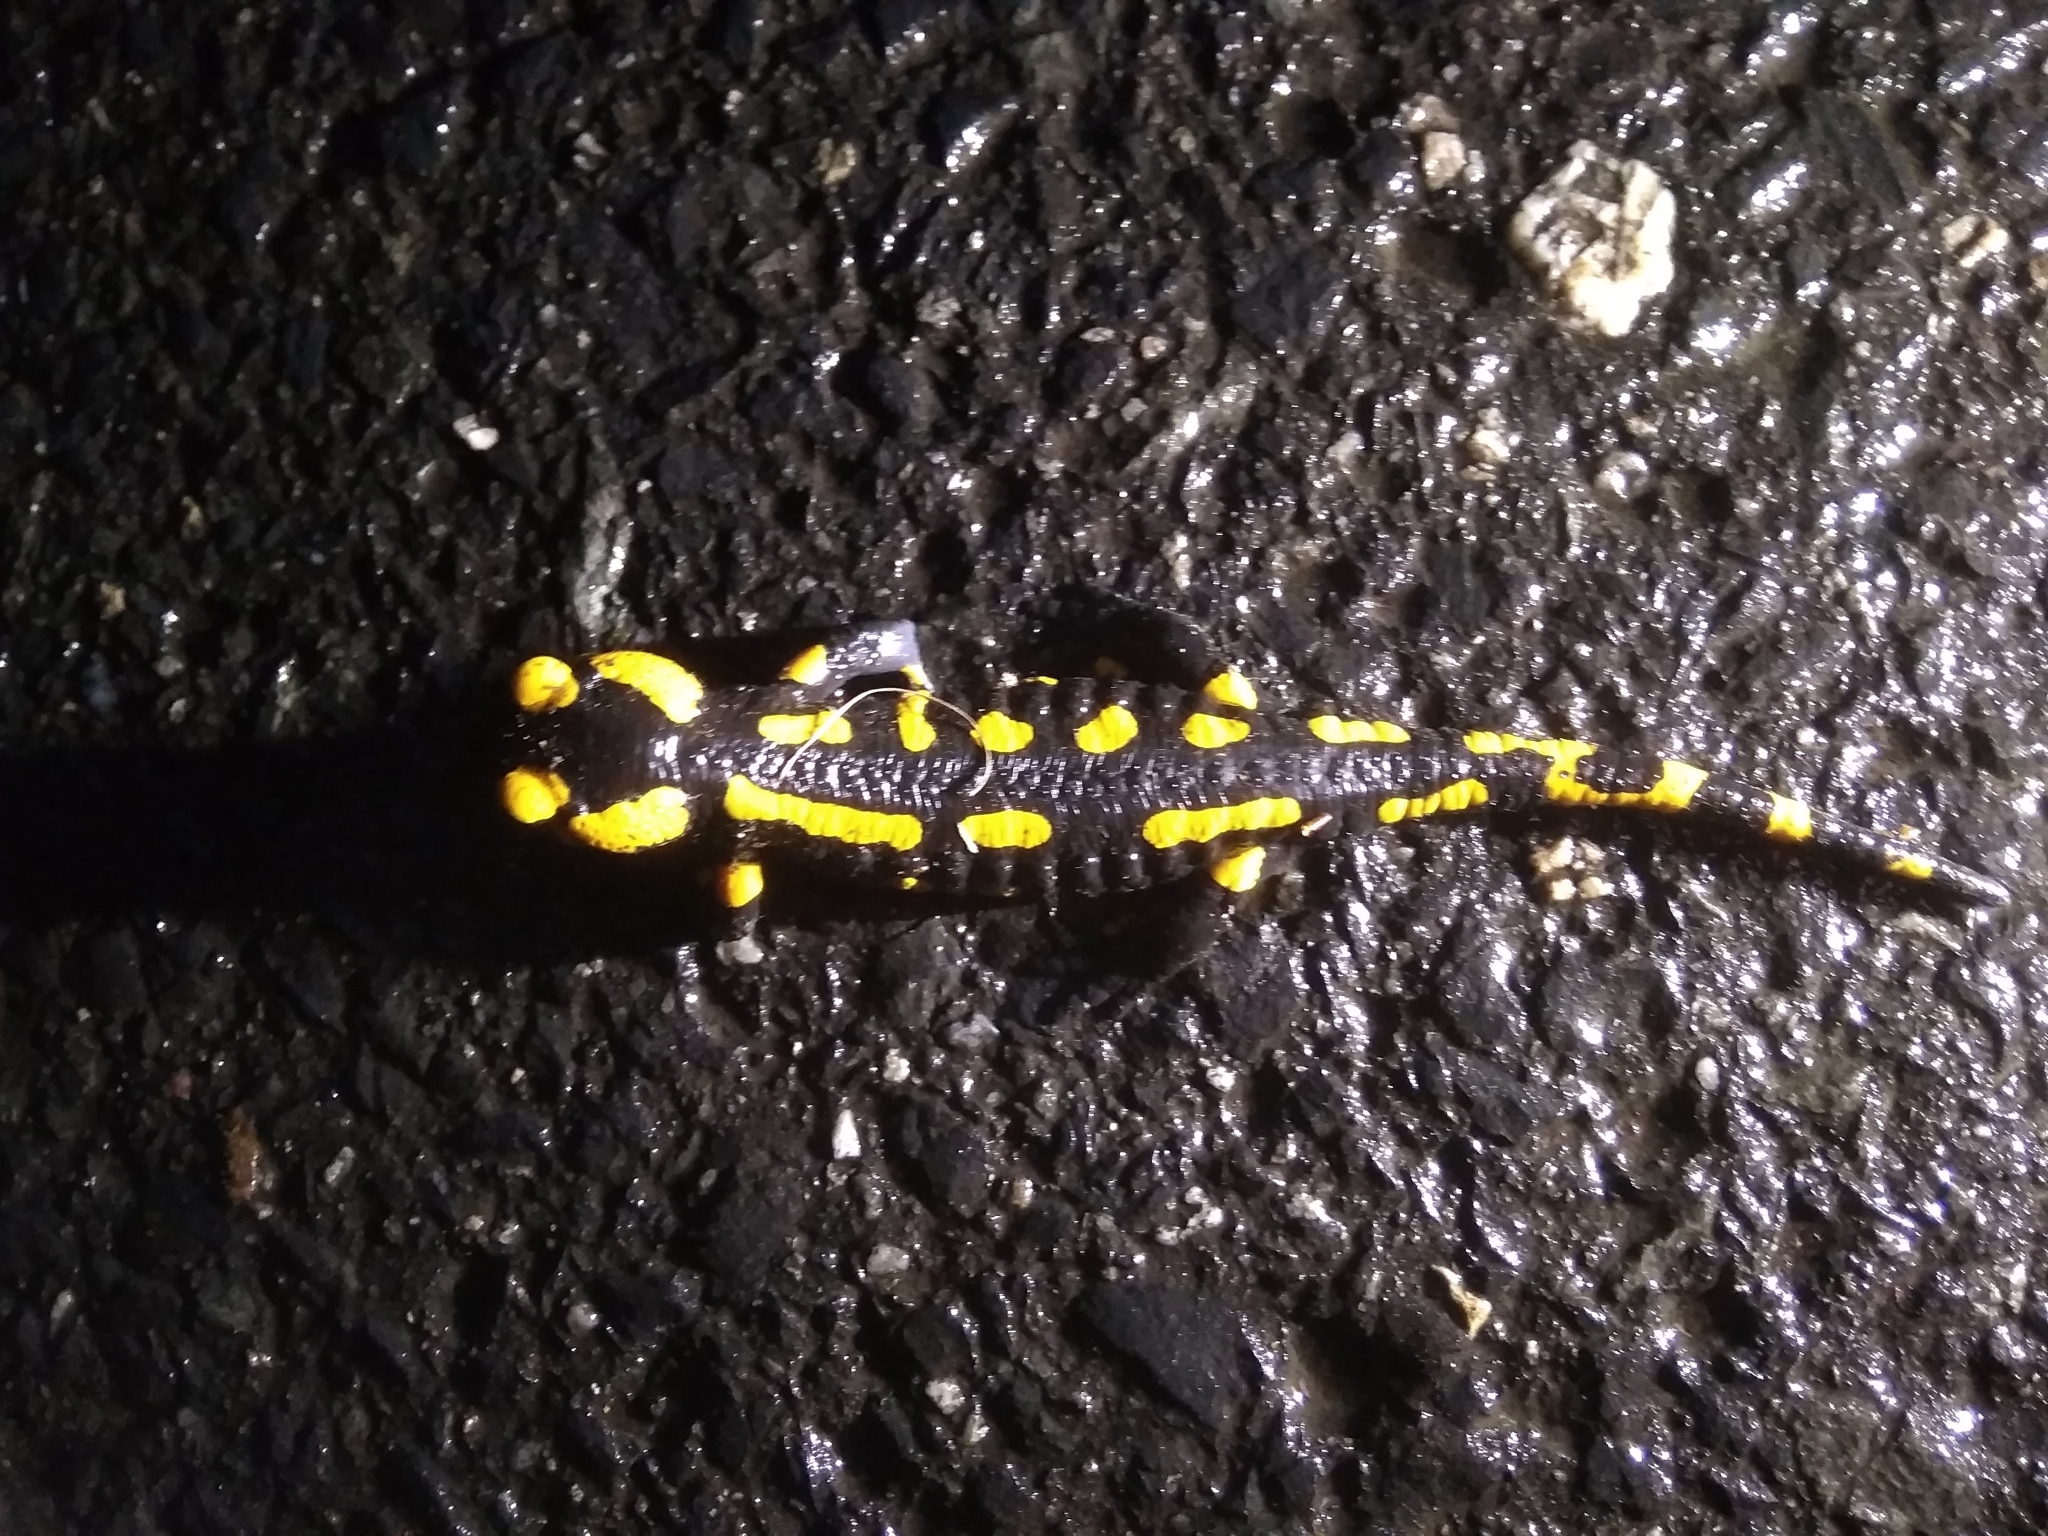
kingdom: Animalia
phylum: Chordata
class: Amphibia
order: Caudata
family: Salamandridae
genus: Salamandra
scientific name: Salamandra salamandra
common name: Fire salamander
